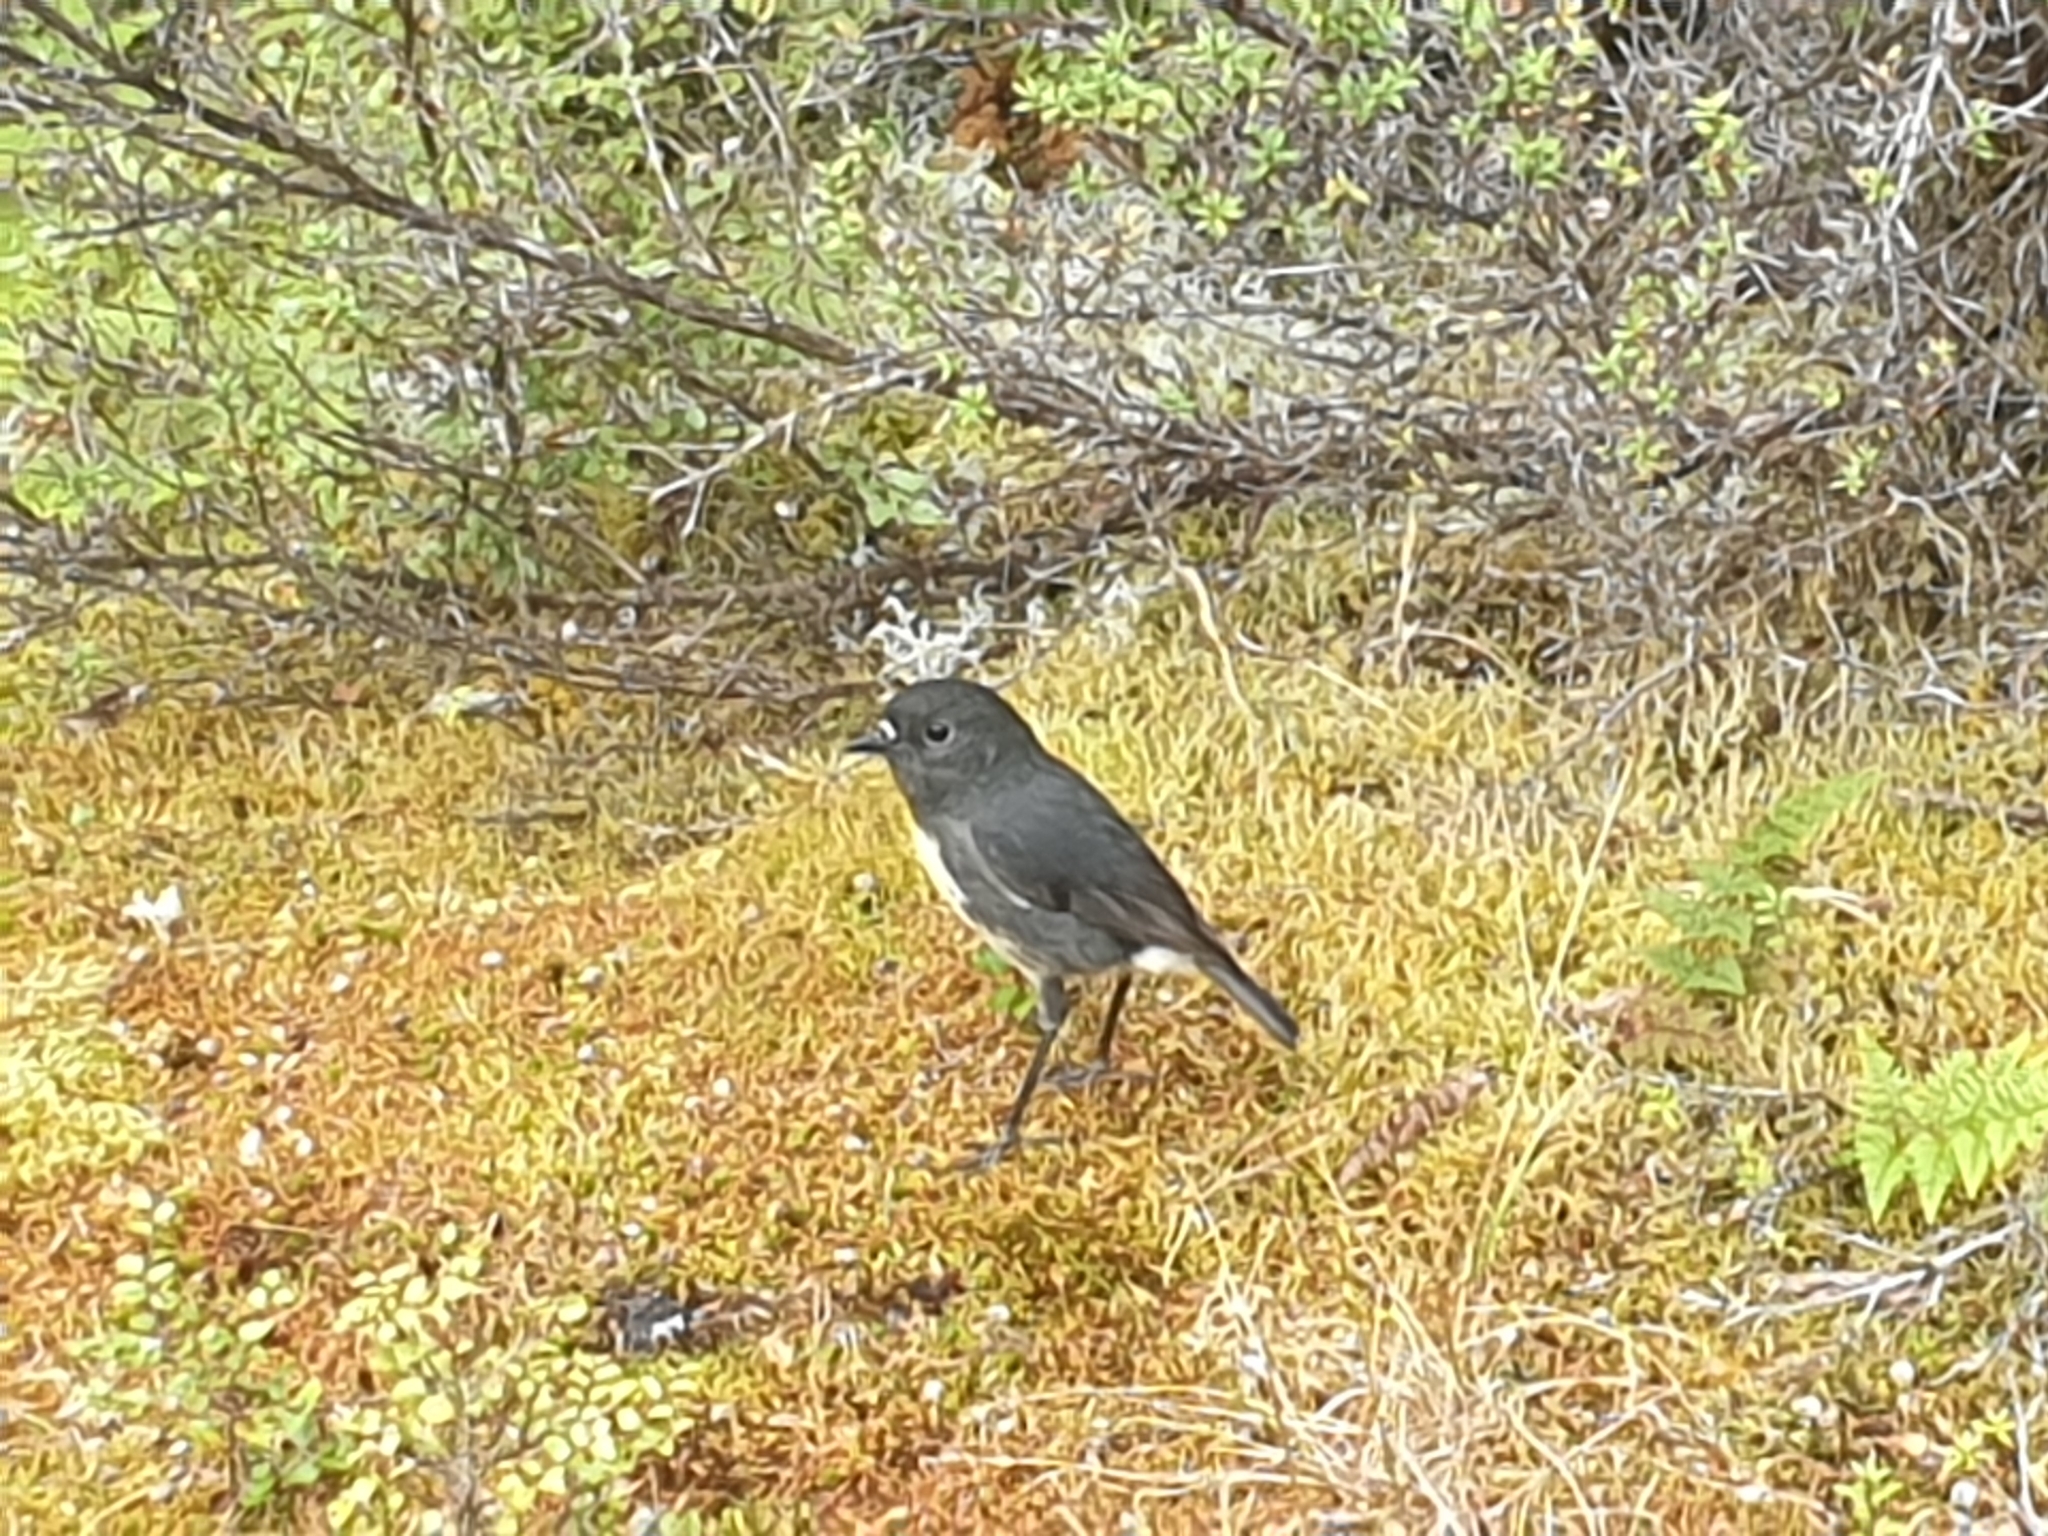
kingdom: Animalia
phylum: Chordata
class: Aves
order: Passeriformes
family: Petroicidae
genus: Petroica
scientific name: Petroica australis
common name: New zealand robin
